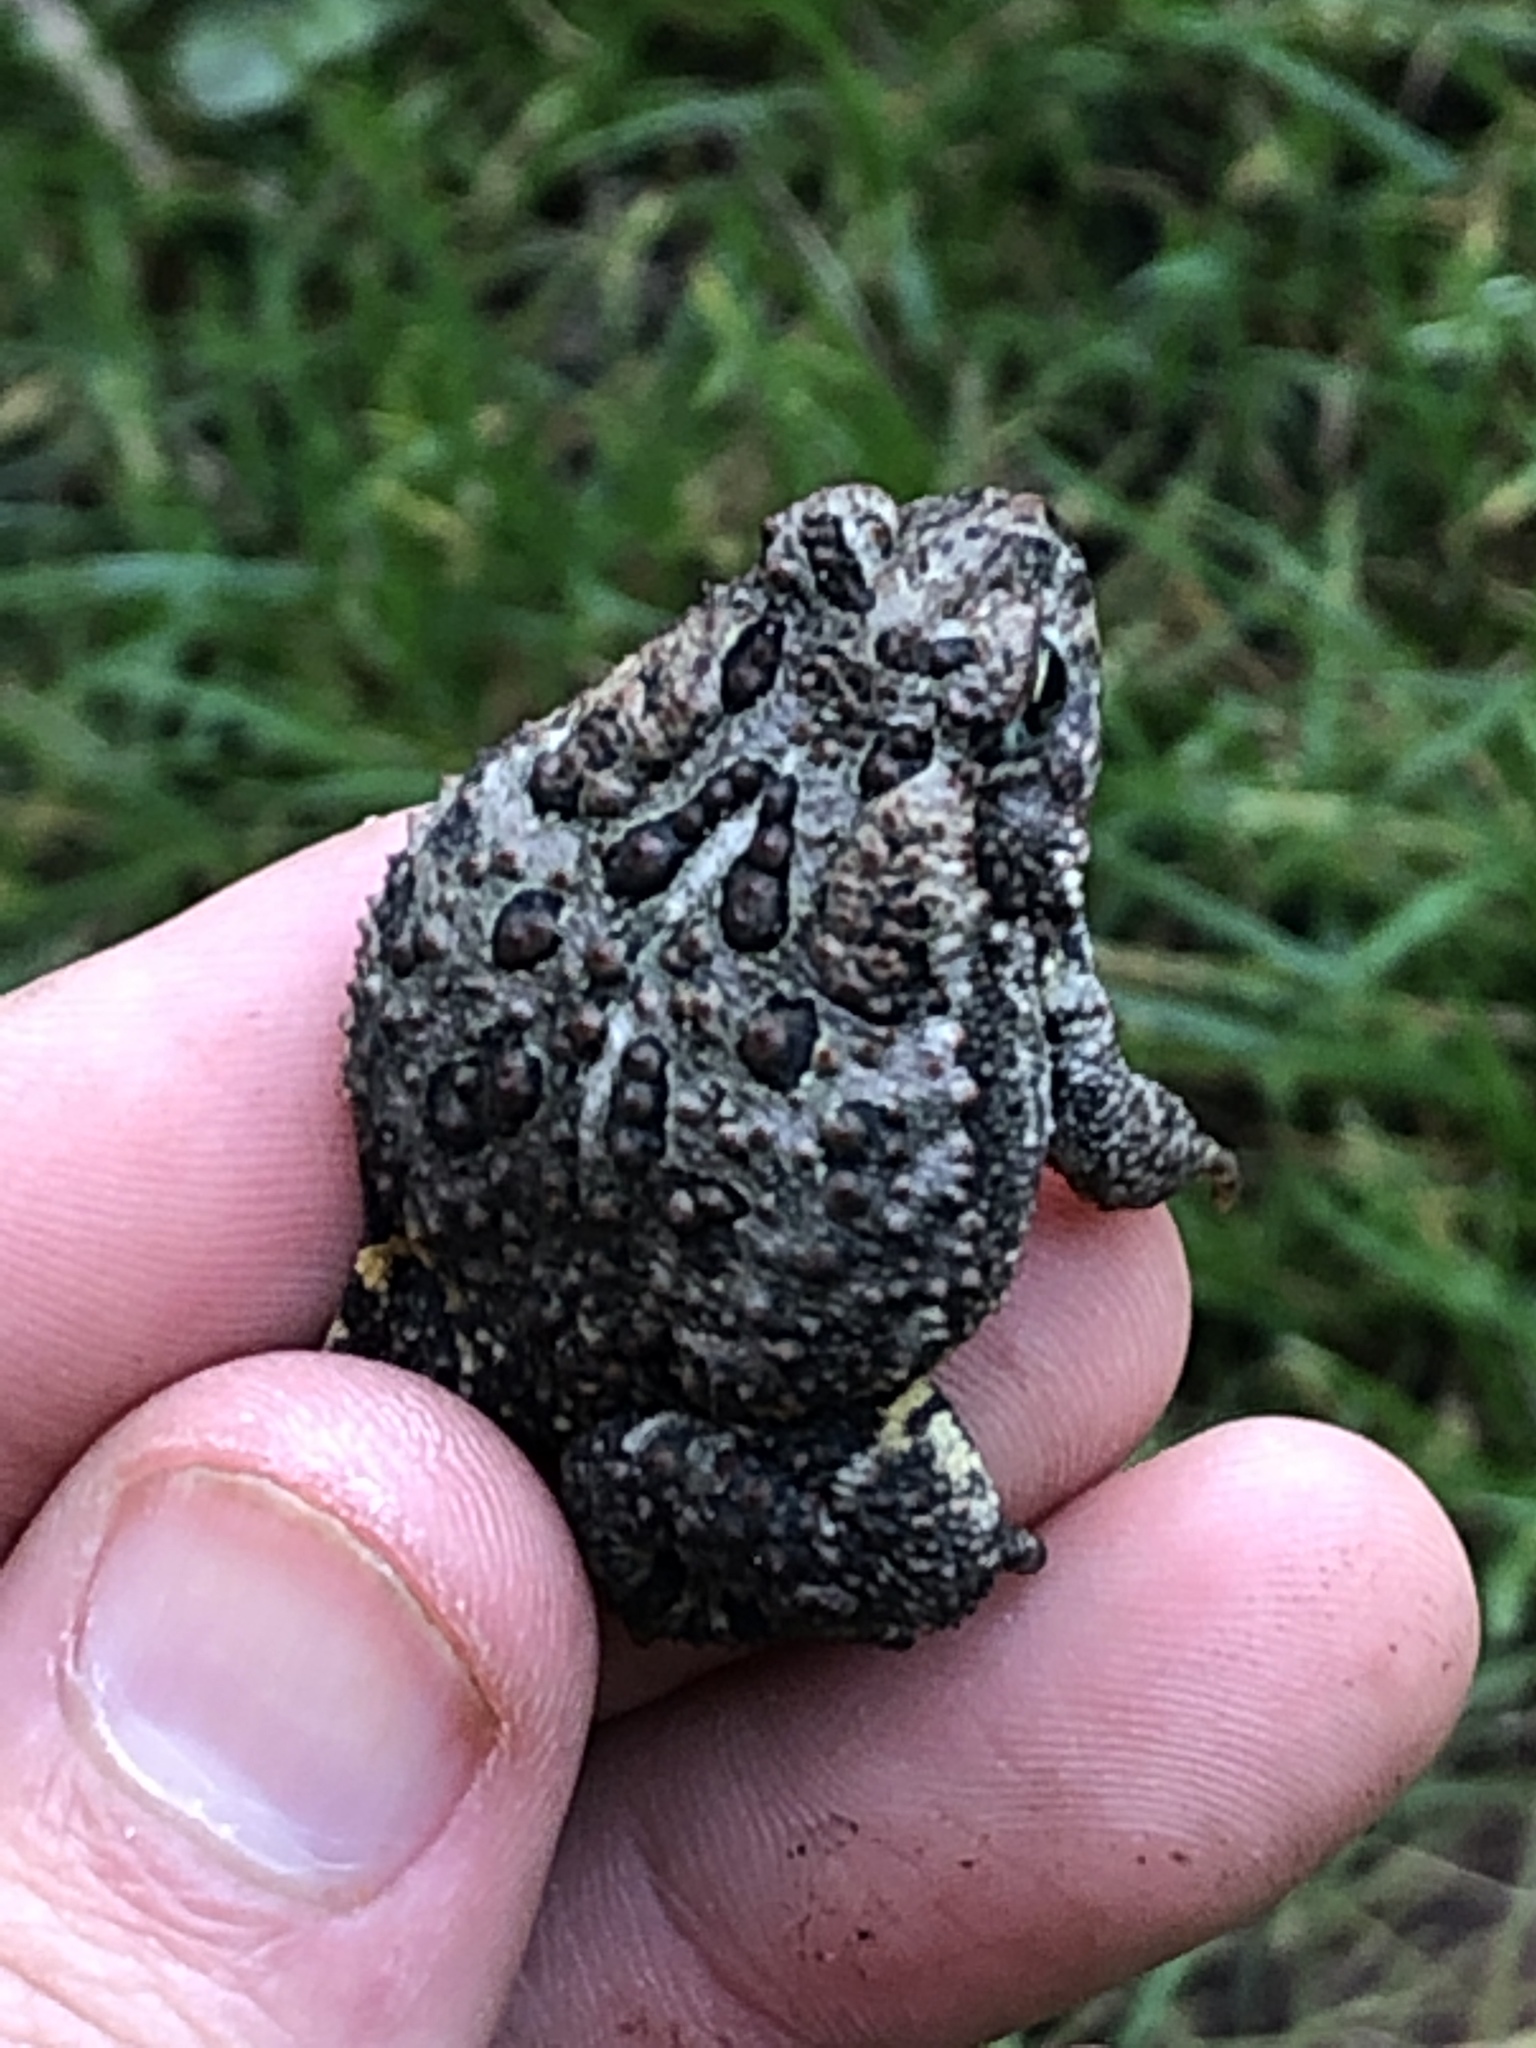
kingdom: Animalia
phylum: Chordata
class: Amphibia
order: Anura
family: Bufonidae
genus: Anaxyrus
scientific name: Anaxyrus hemiophrys
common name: Canadian toad
